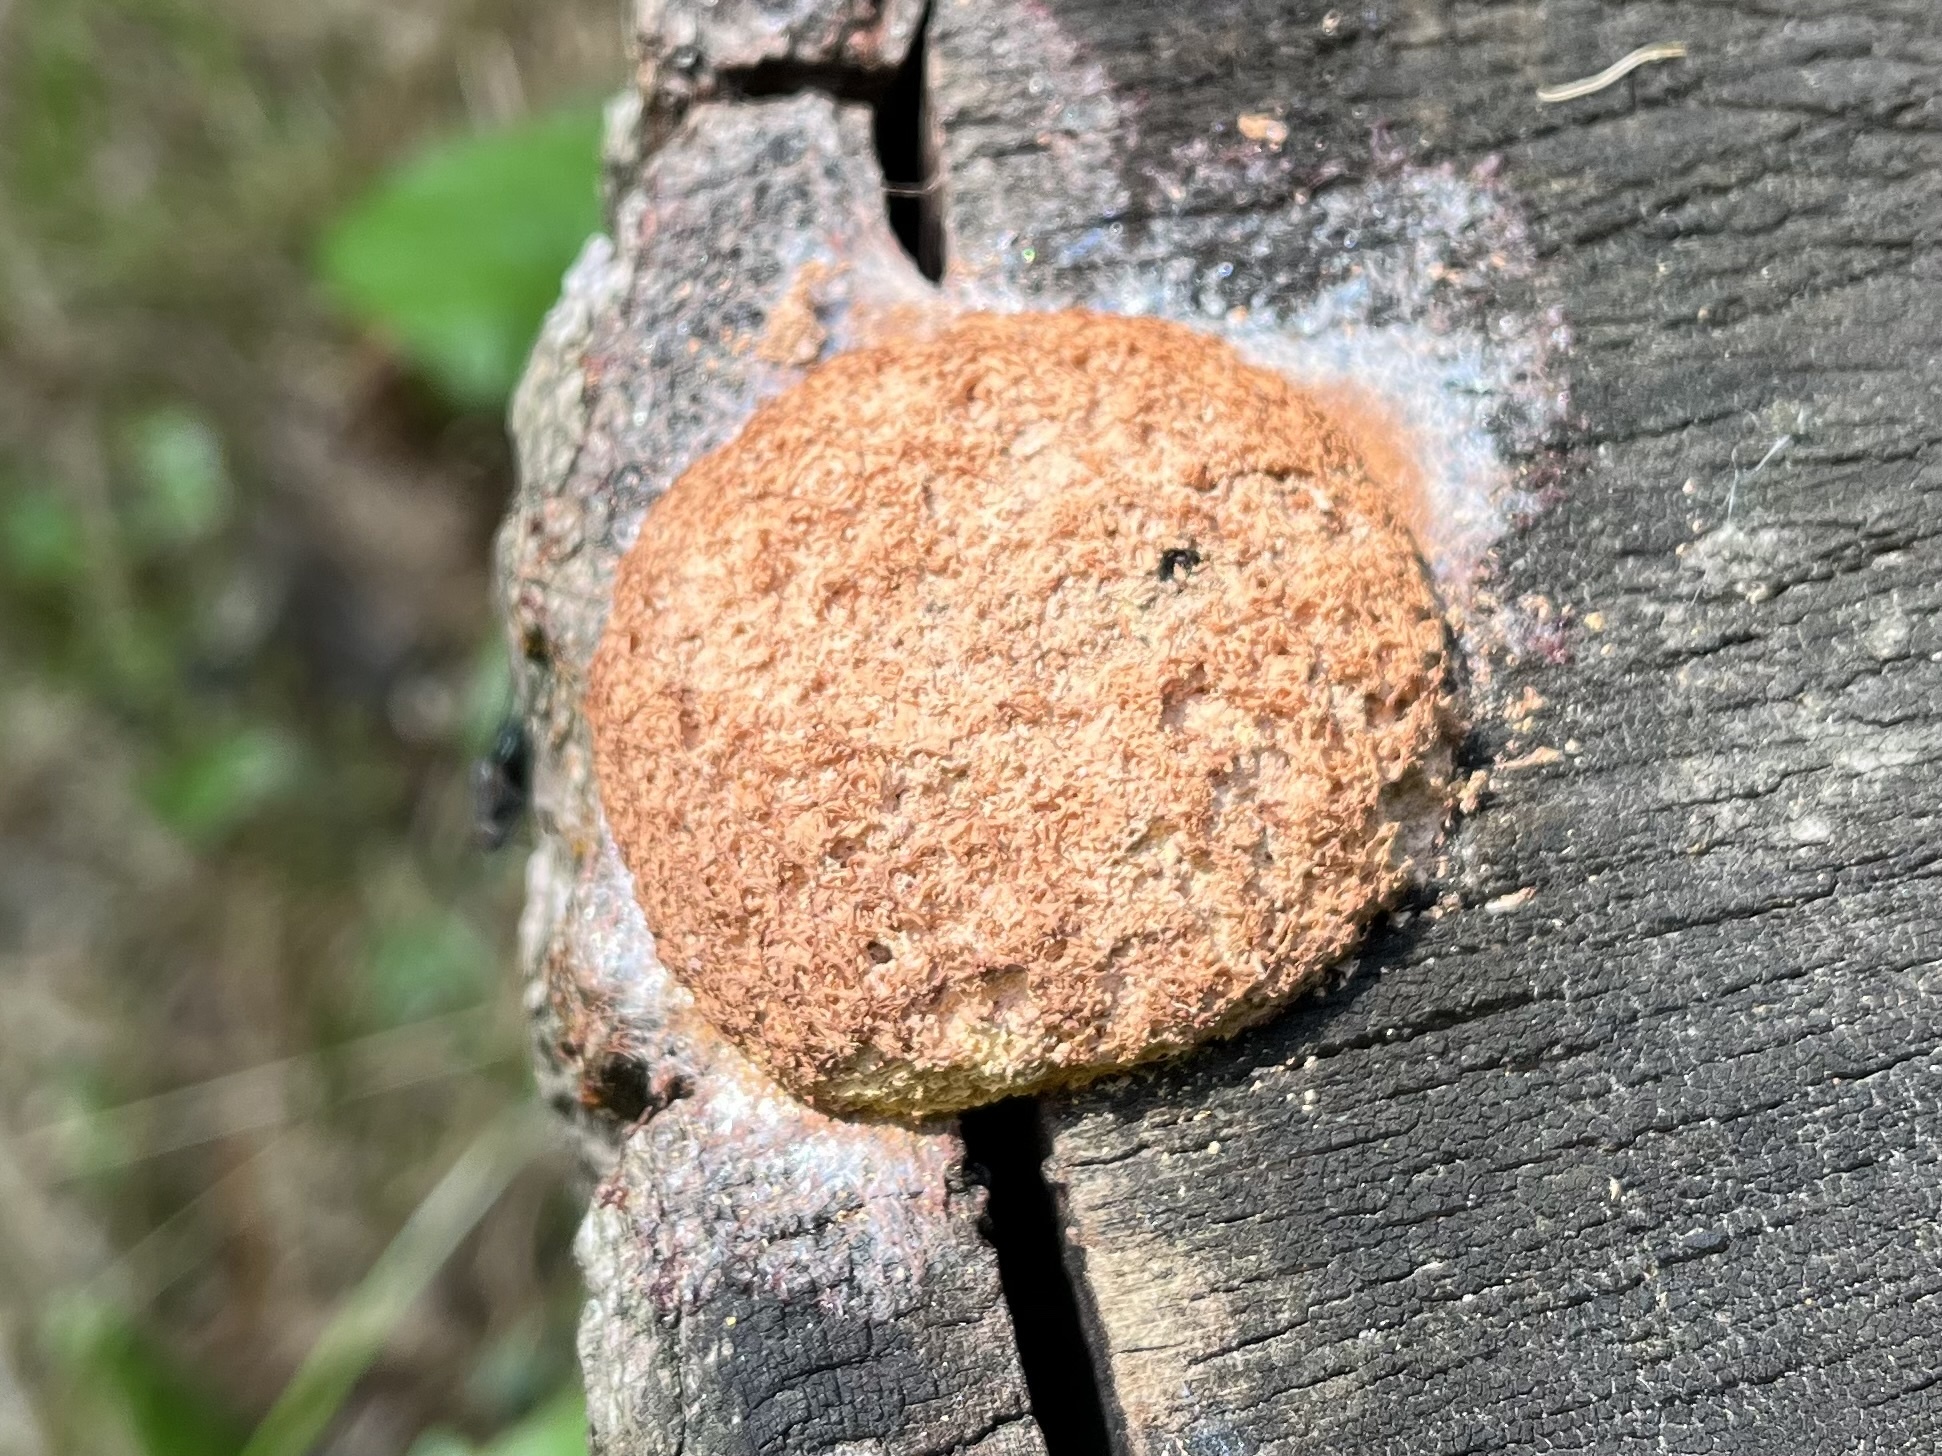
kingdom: Protozoa
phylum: Mycetozoa
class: Myxomycetes
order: Physarales
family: Physaraceae
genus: Fuligo
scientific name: Fuligo septica
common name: Dog vomit slime mold
